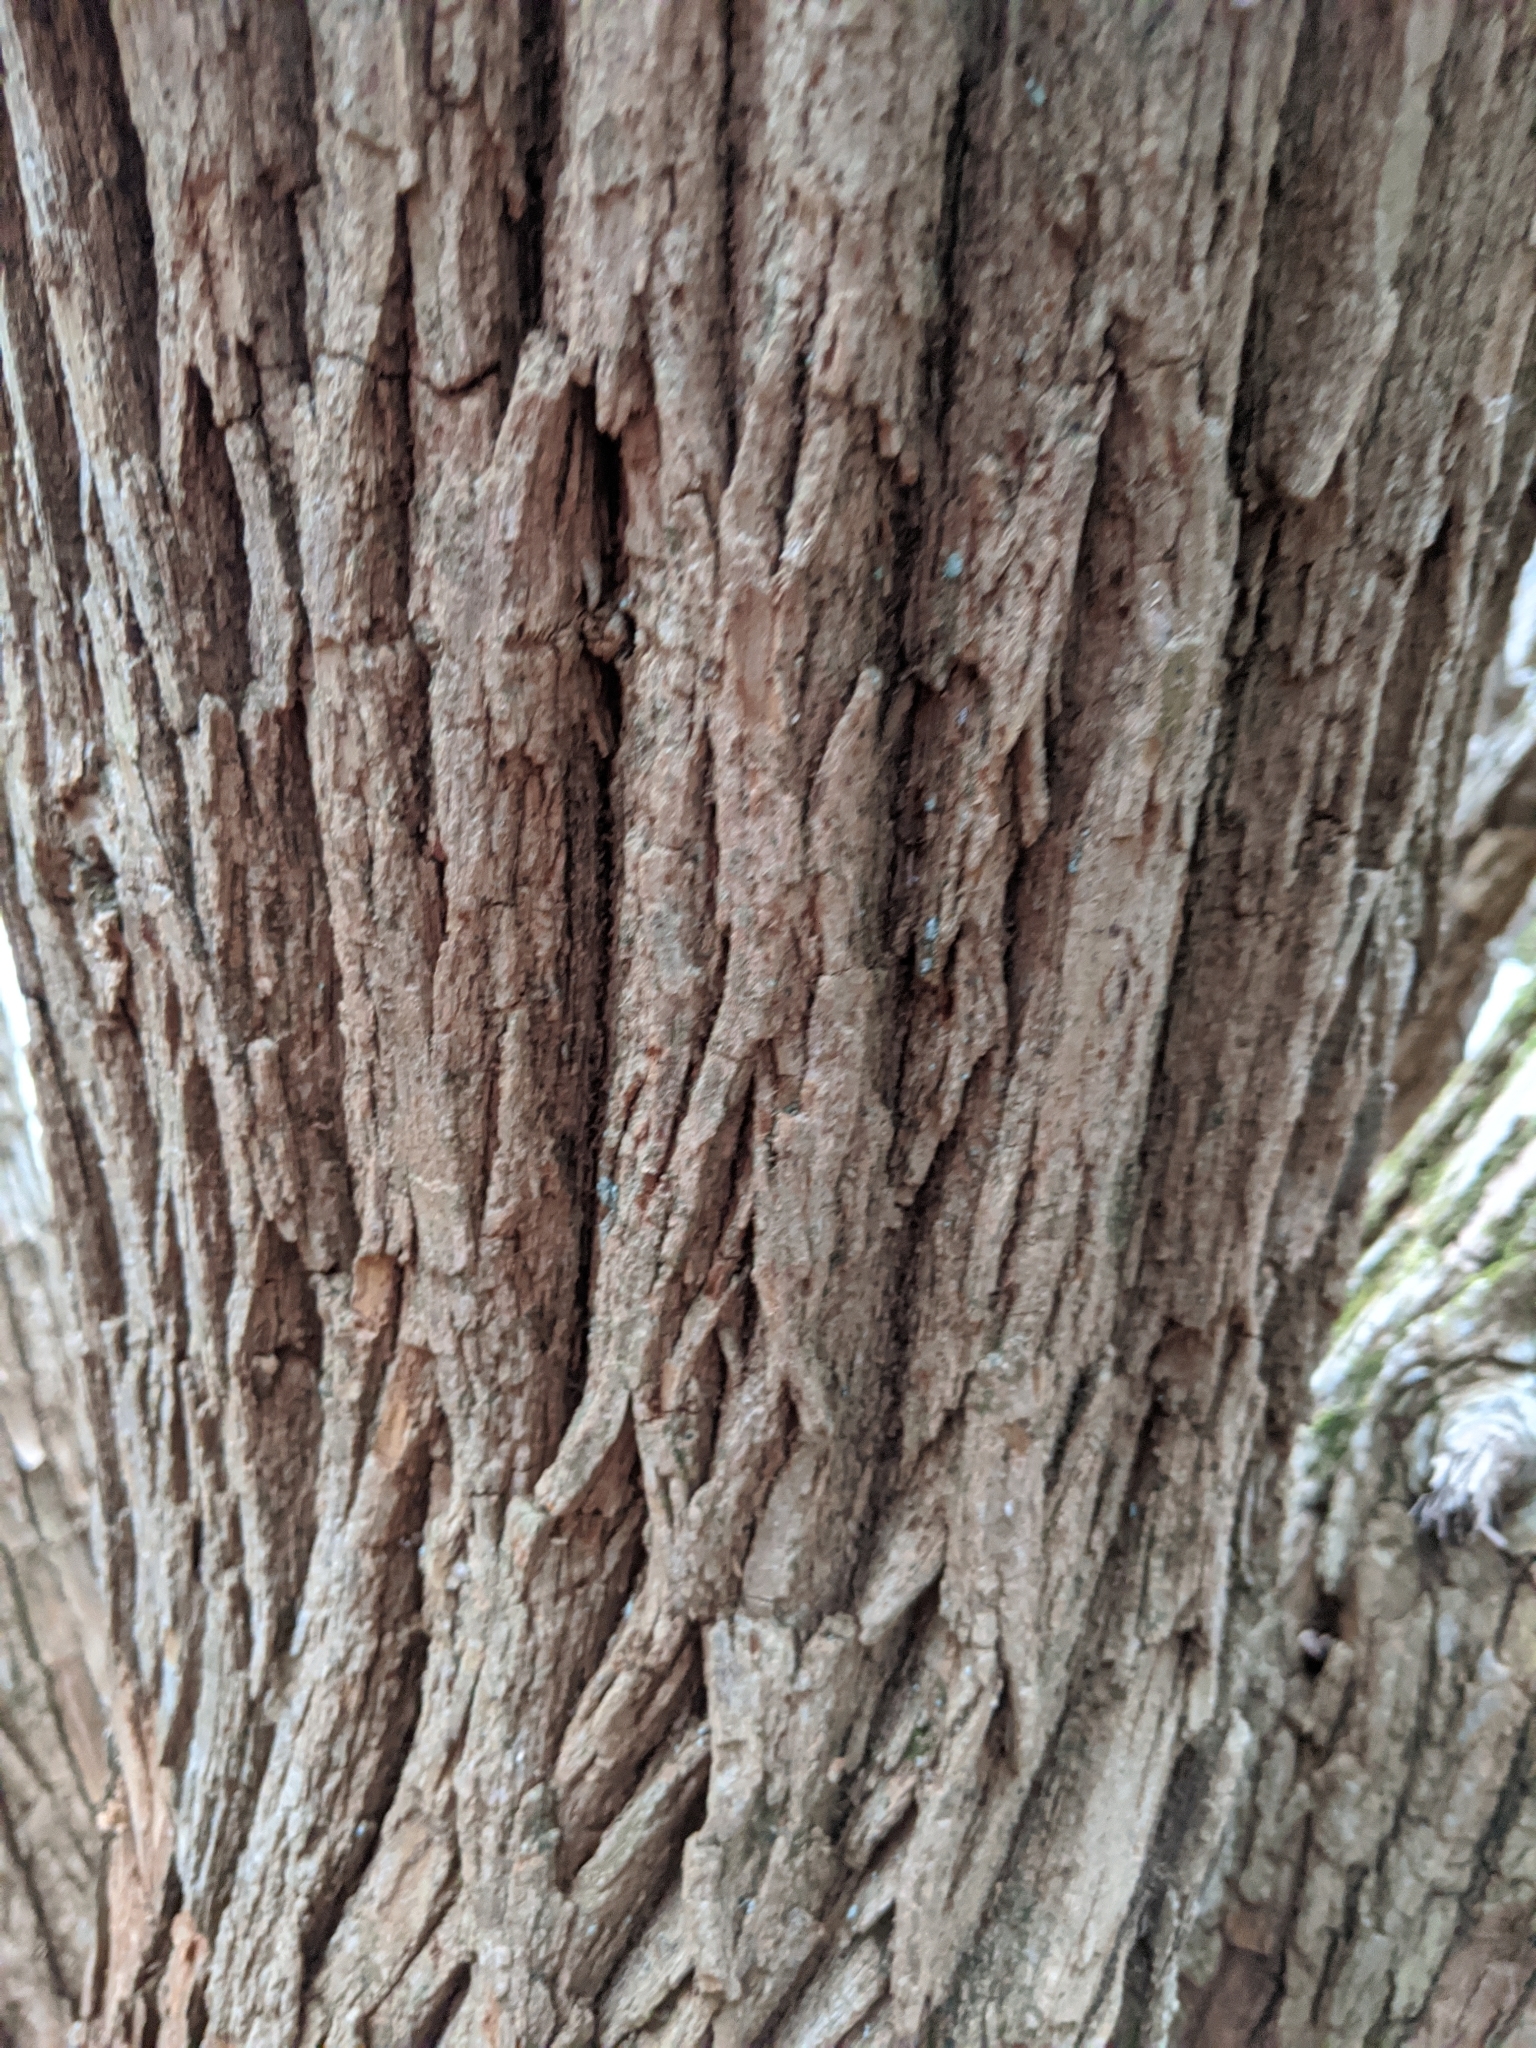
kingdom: Plantae
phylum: Tracheophyta
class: Magnoliopsida
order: Rosales
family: Moraceae
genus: Maclura
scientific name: Maclura pomifera
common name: Osage-orange
